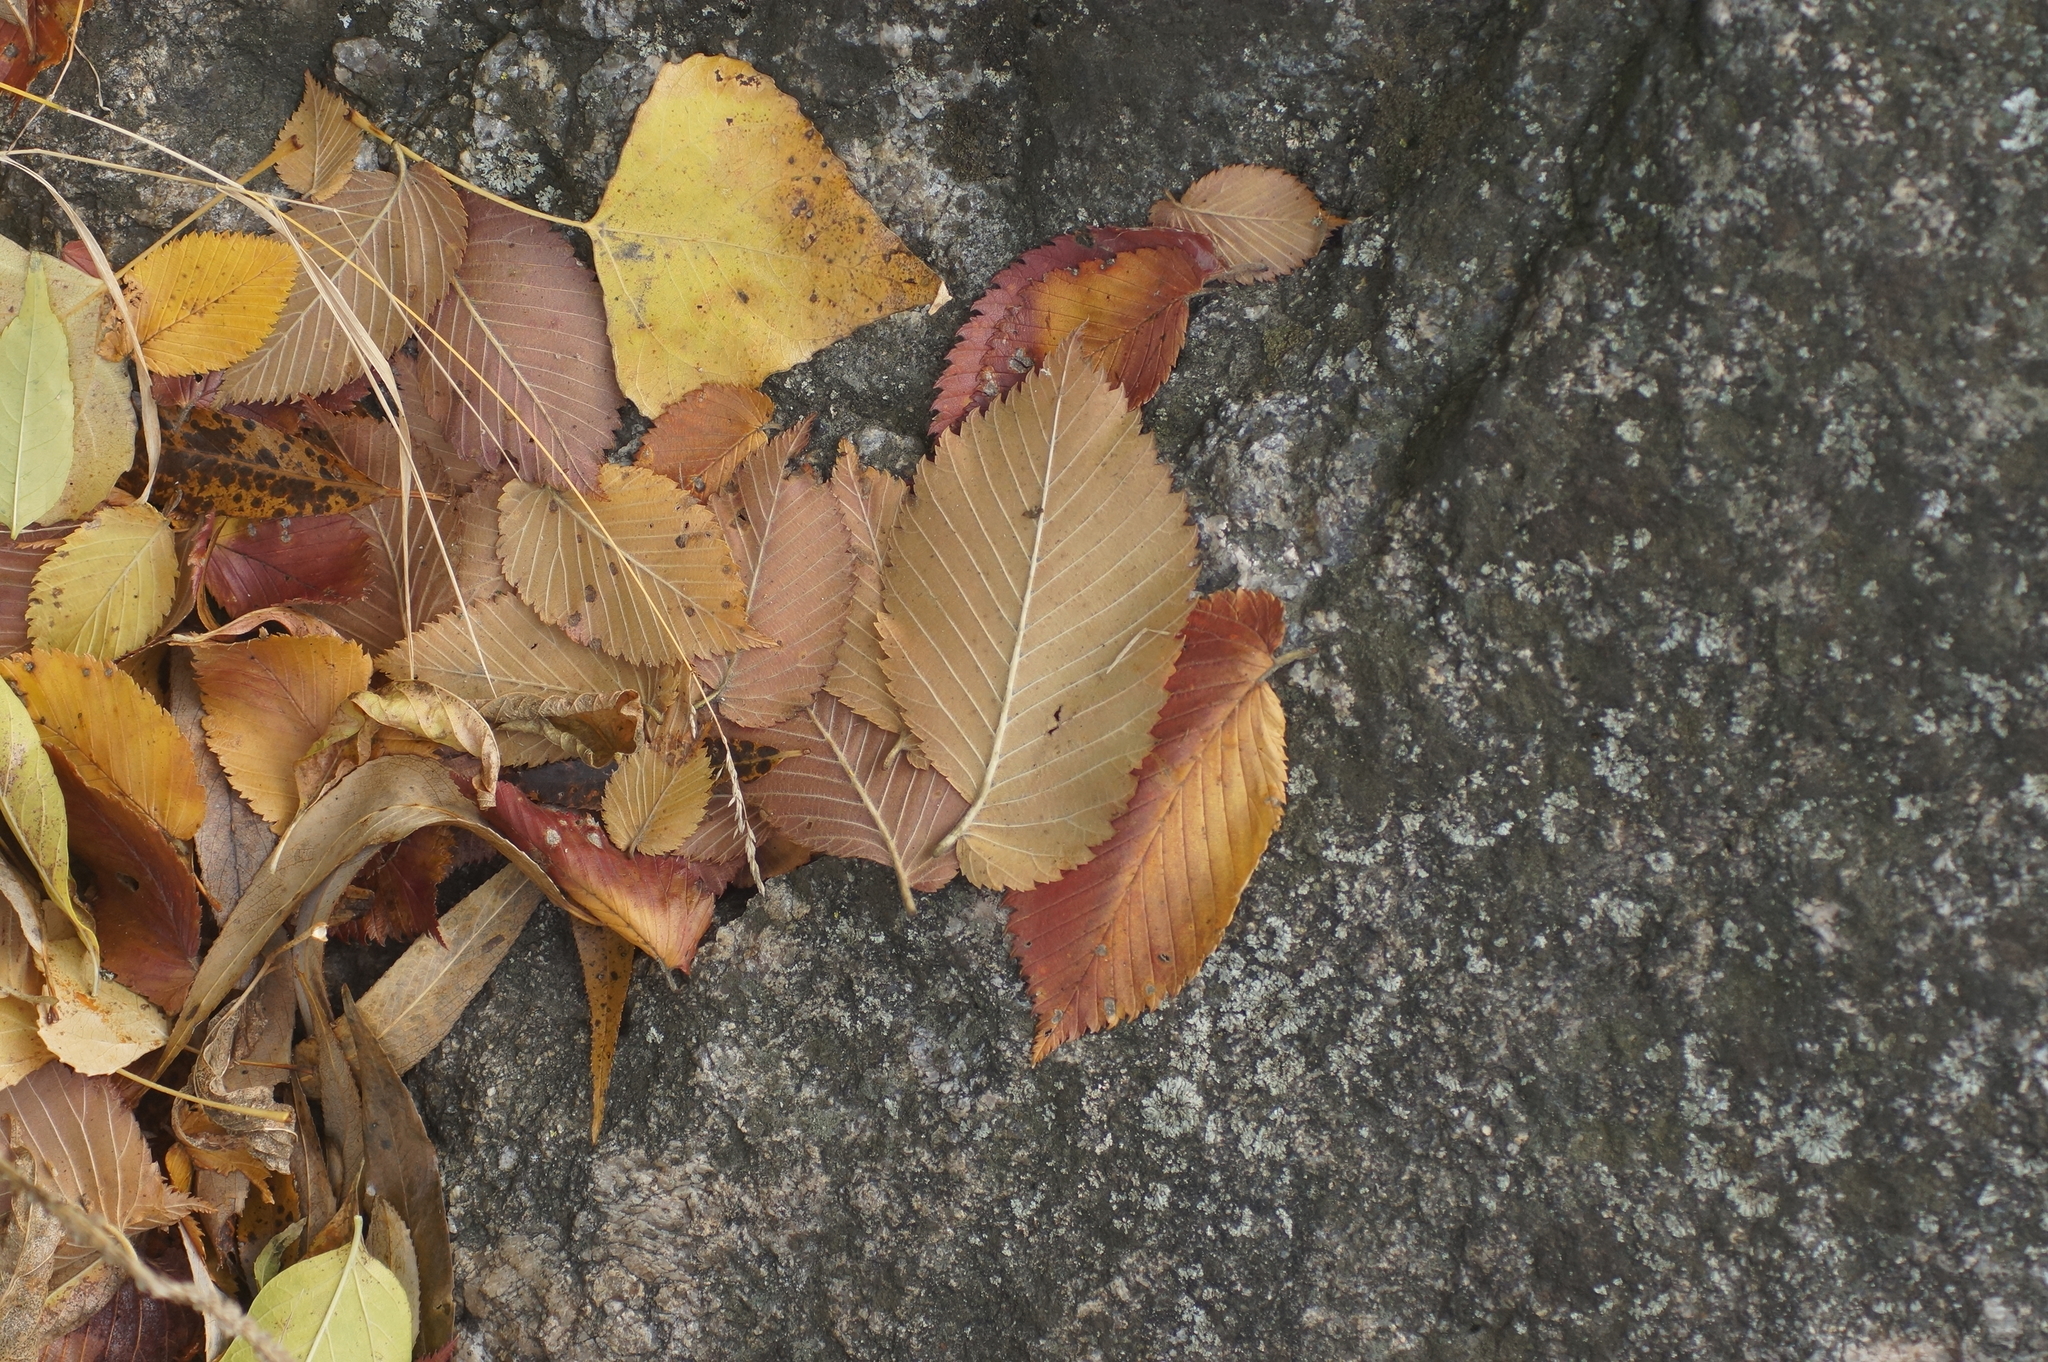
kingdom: Plantae
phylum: Tracheophyta
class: Magnoliopsida
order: Rosales
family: Ulmaceae
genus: Ulmus
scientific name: Ulmus laevis
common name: European white-elm
